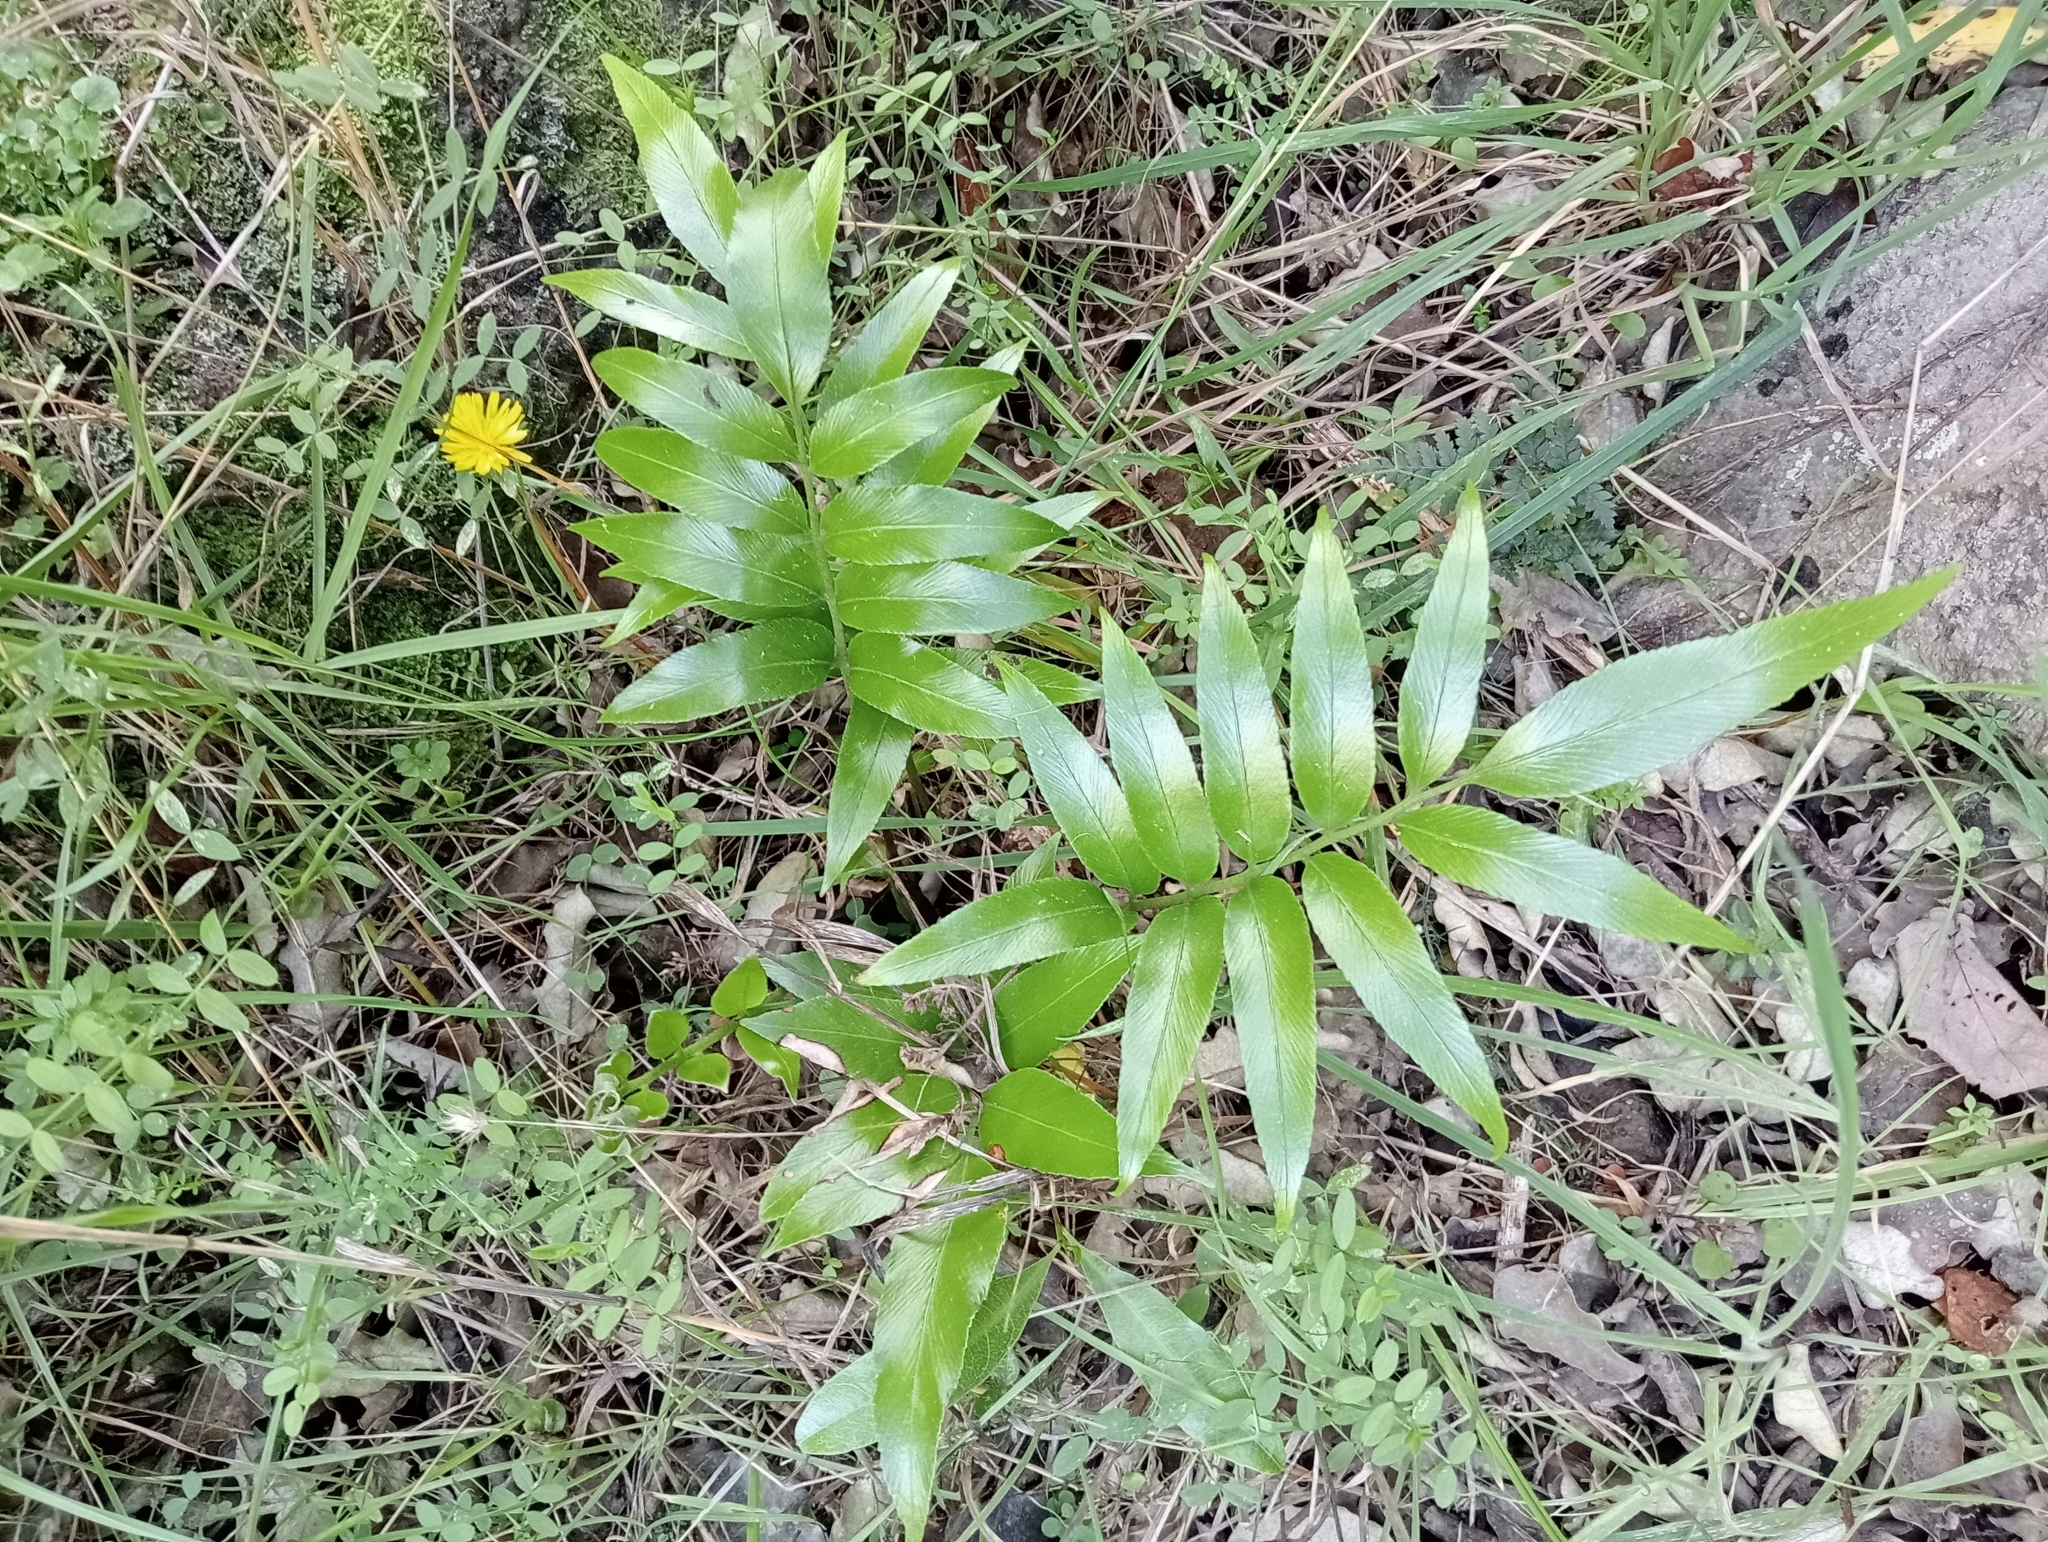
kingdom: Plantae
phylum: Tracheophyta
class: Polypodiopsida
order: Polypodiales
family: Aspleniaceae
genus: Asplenium
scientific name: Asplenium oblongifolium
